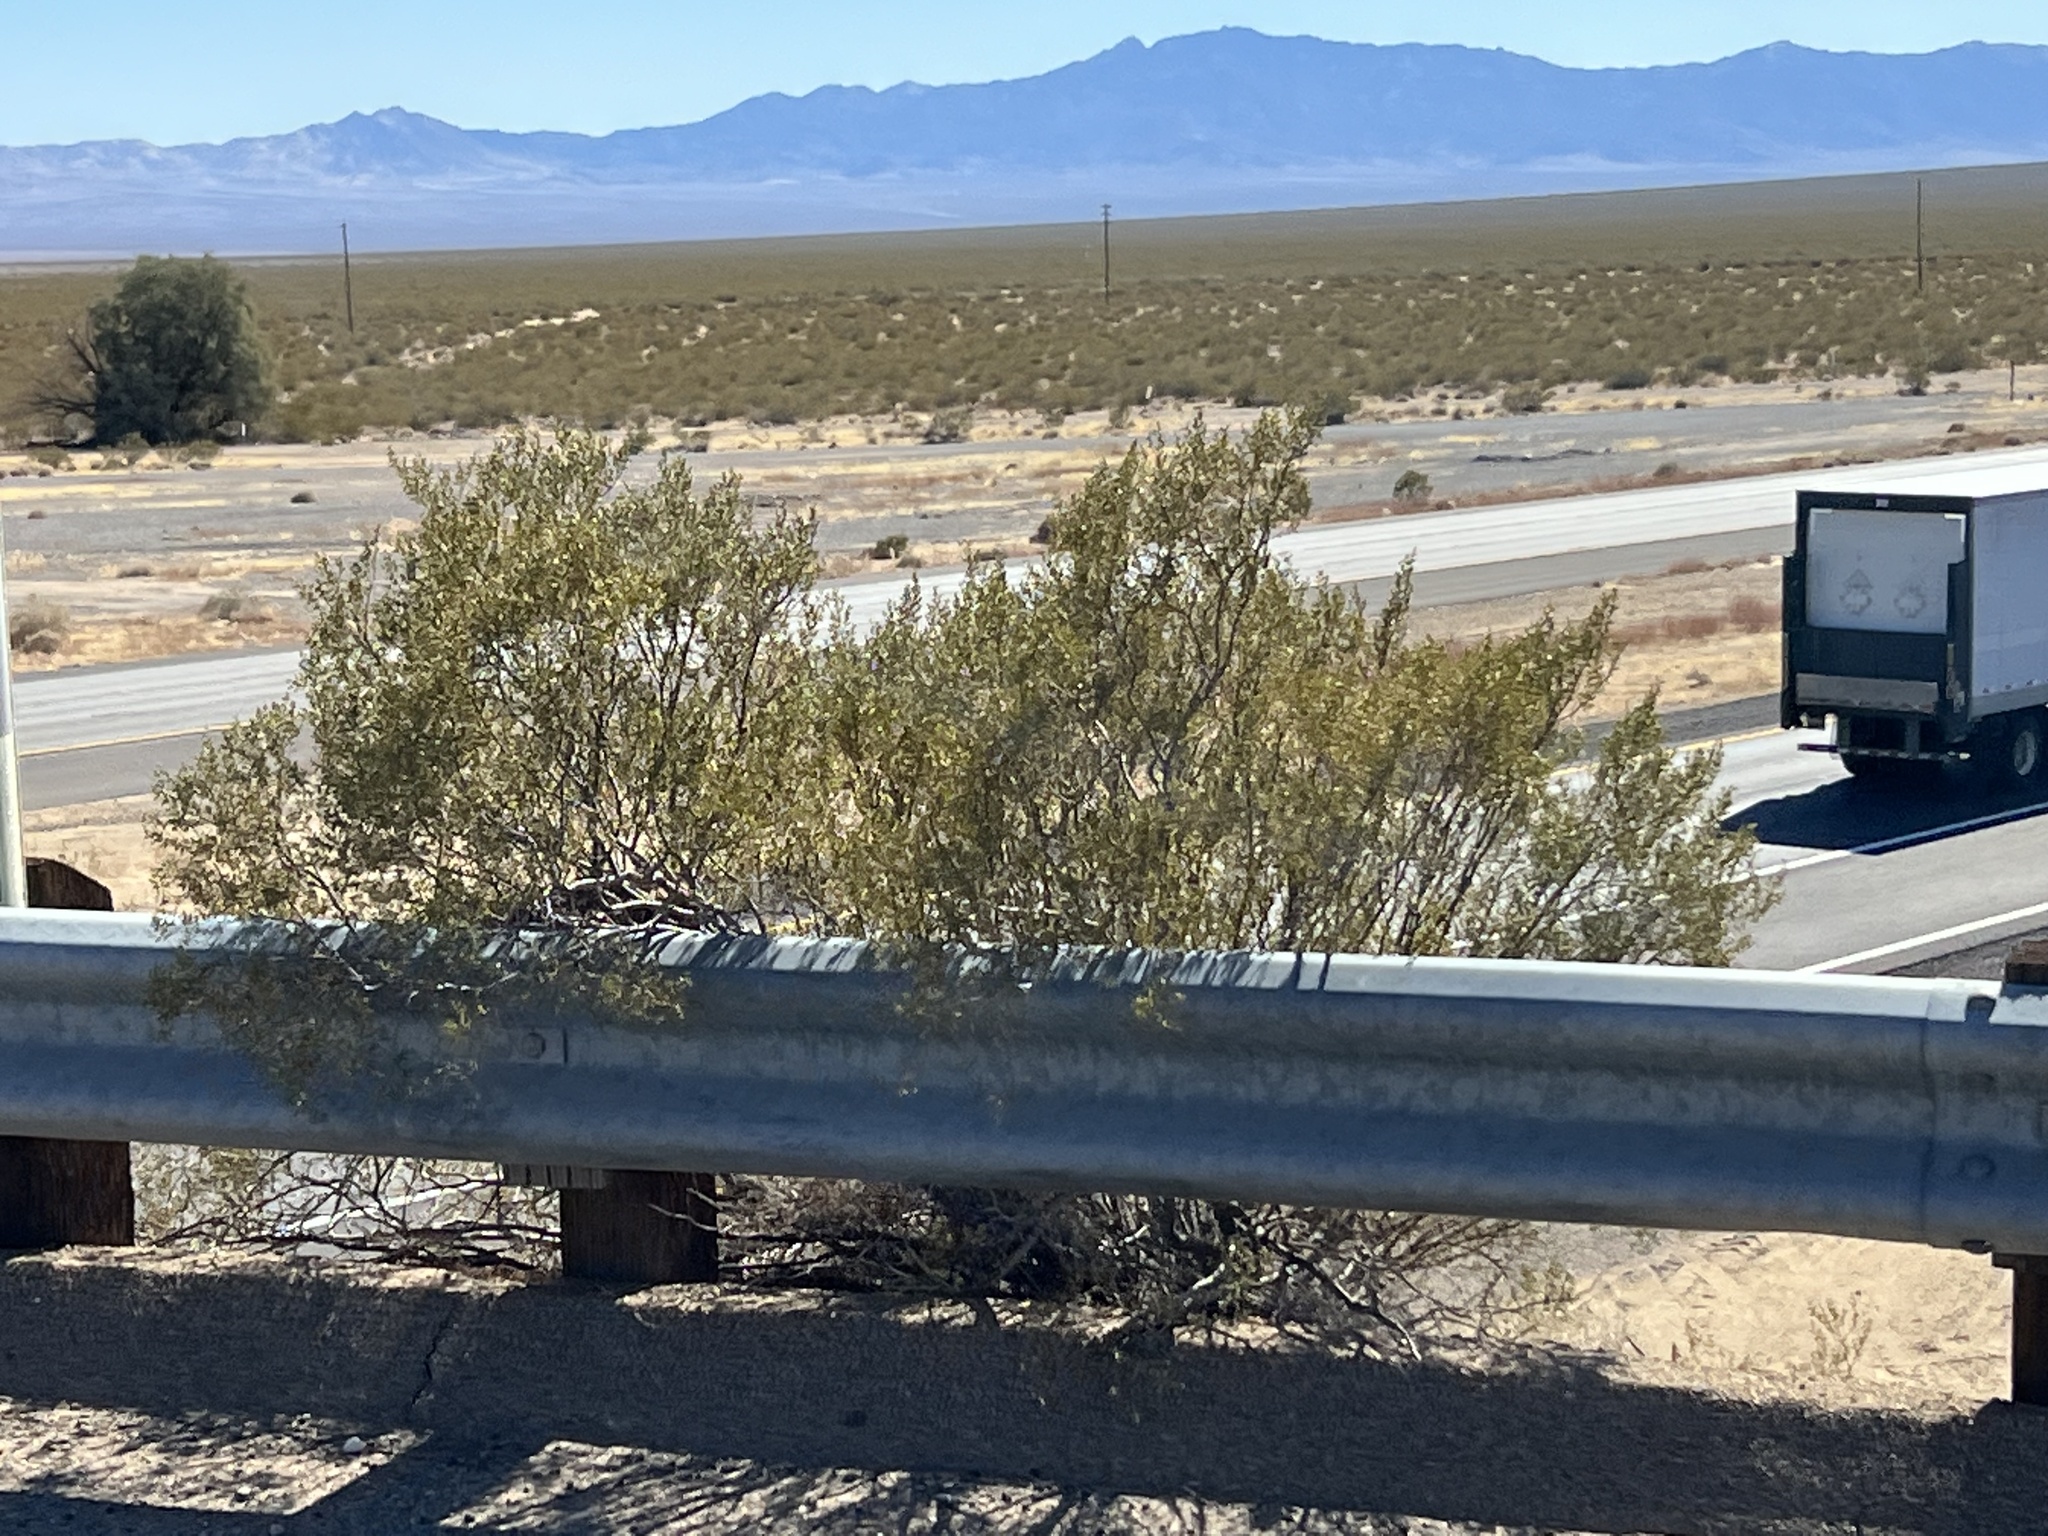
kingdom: Plantae
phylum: Tracheophyta
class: Magnoliopsida
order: Zygophyllales
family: Zygophyllaceae
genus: Larrea
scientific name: Larrea tridentata
